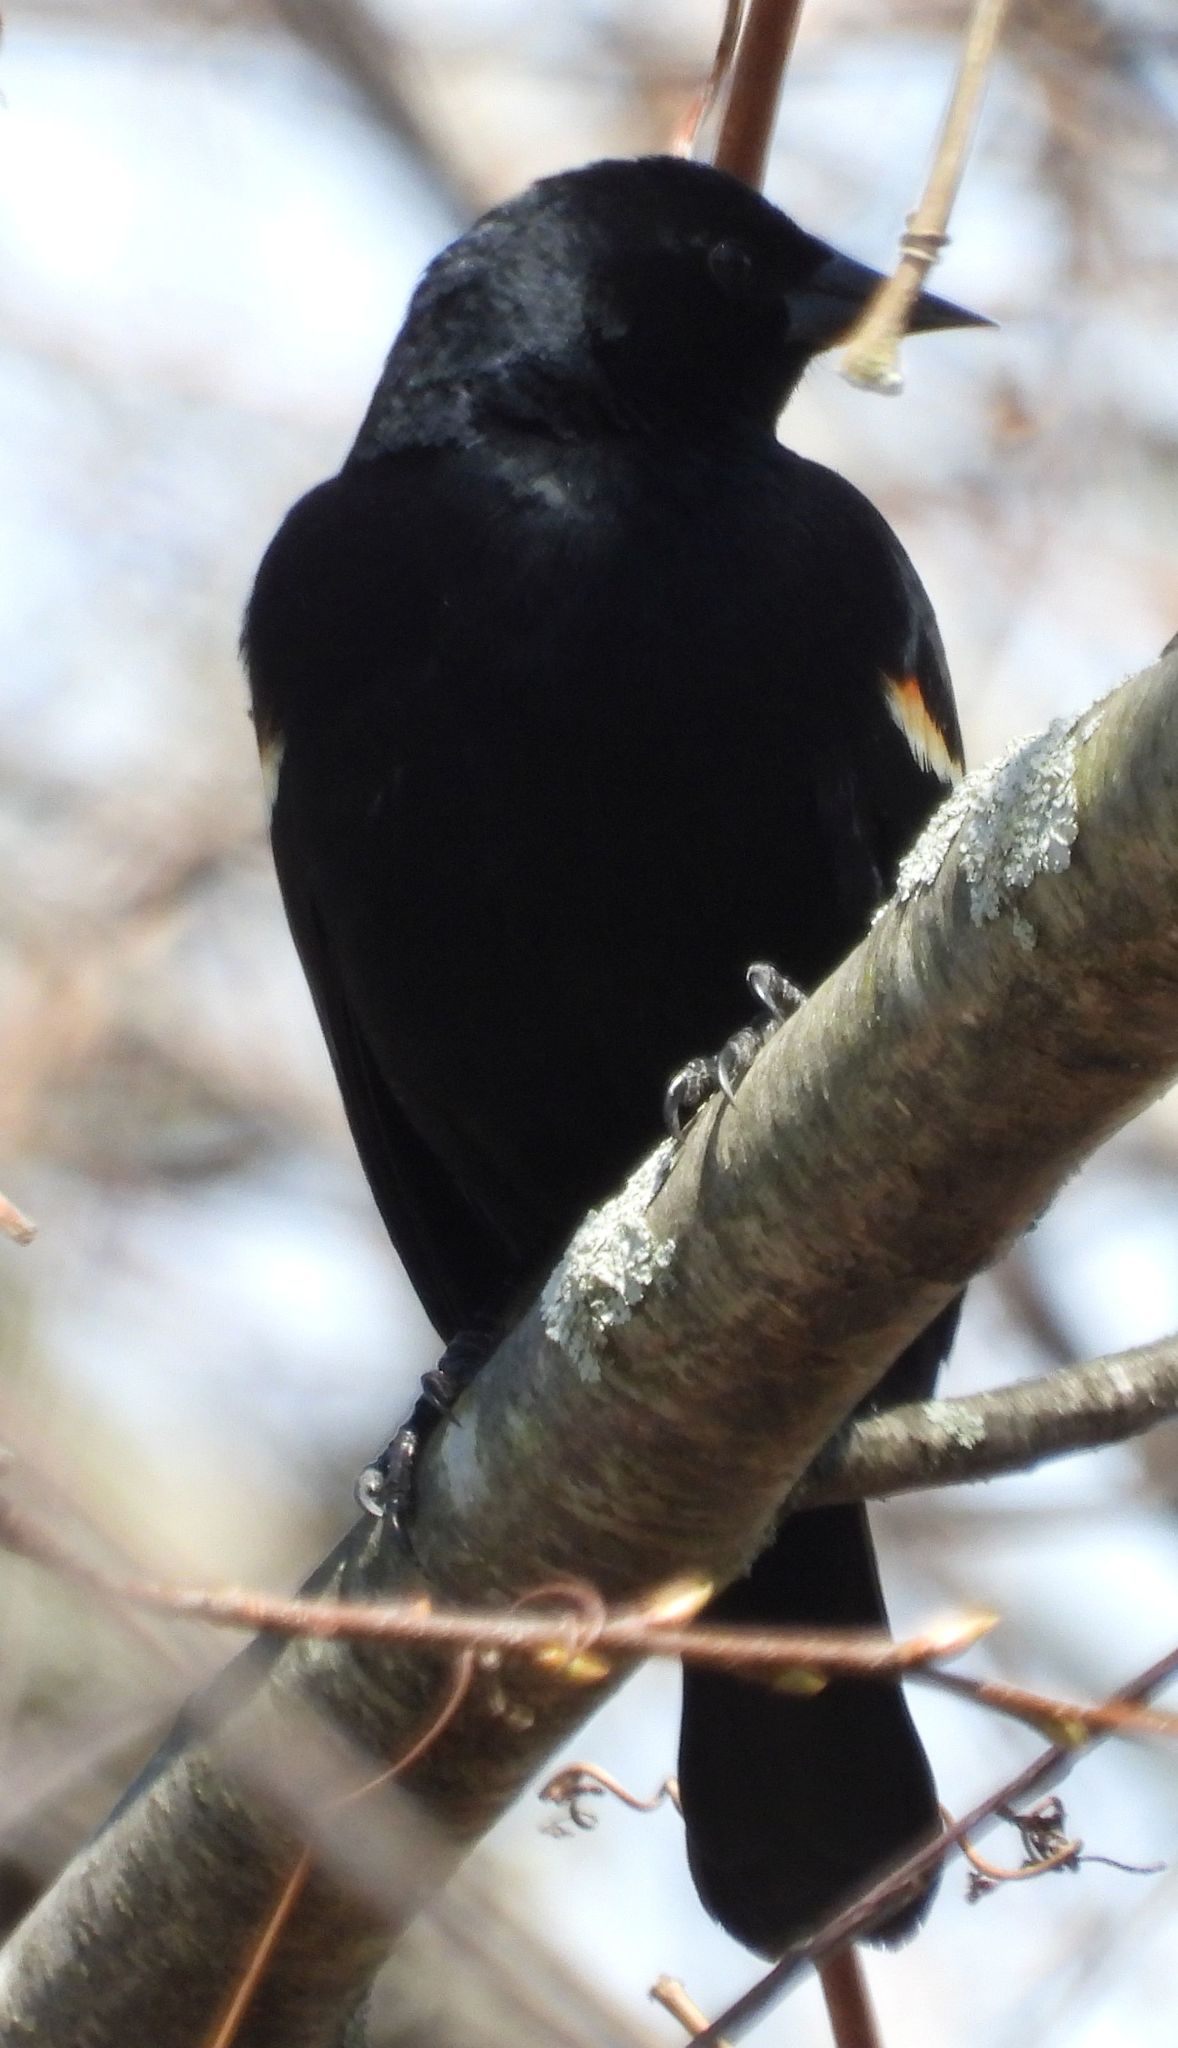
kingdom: Animalia
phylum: Chordata
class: Aves
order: Passeriformes
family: Icteridae
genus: Agelaius
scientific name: Agelaius phoeniceus
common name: Red-winged blackbird
